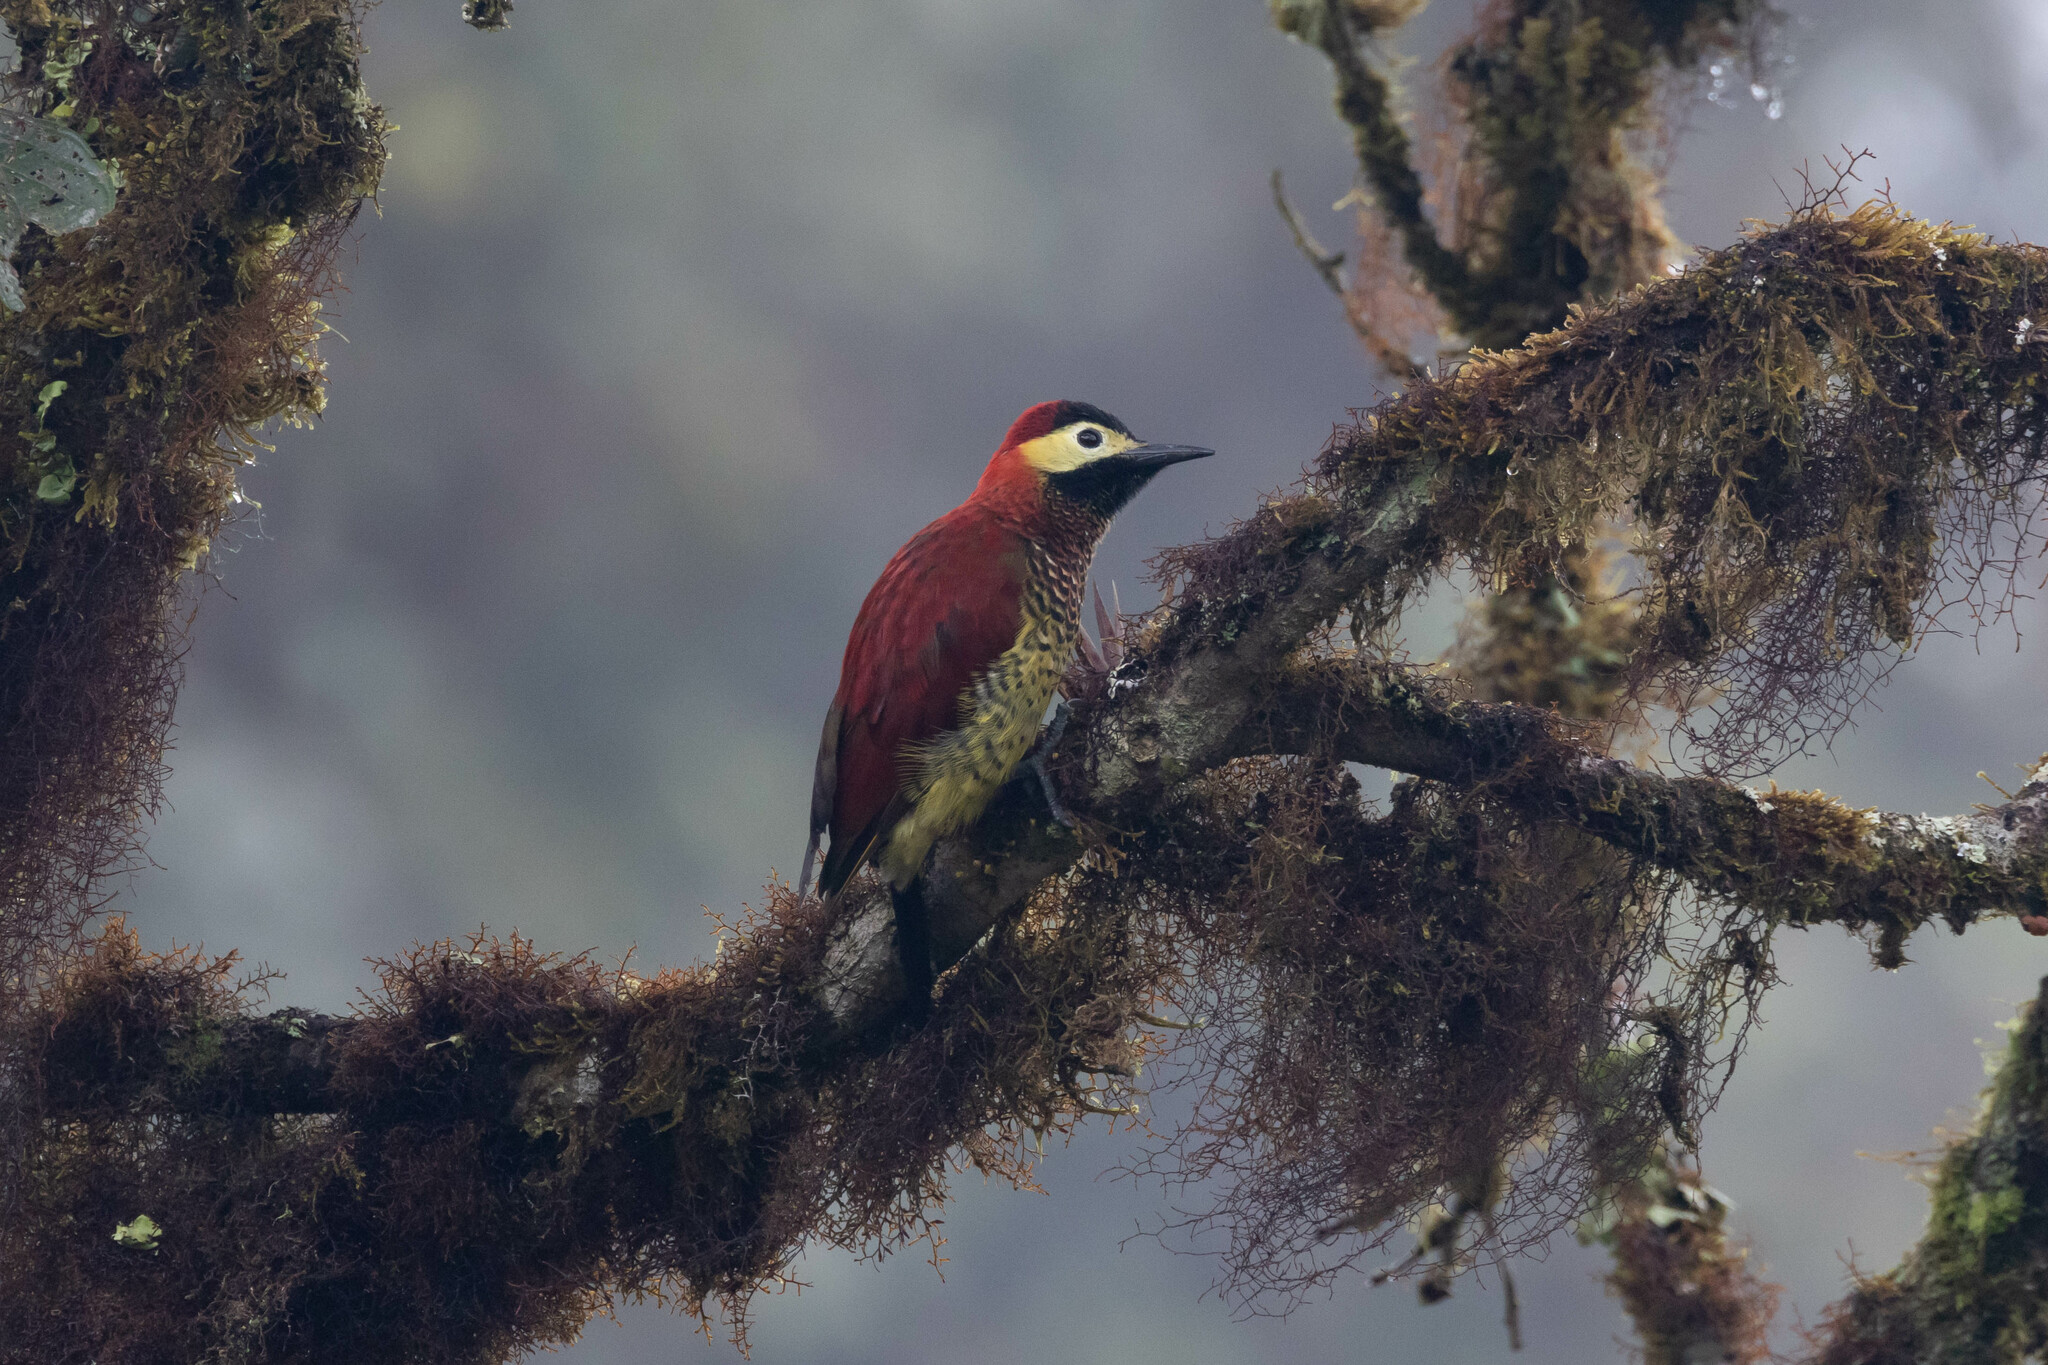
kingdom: Animalia
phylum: Chordata
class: Aves
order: Piciformes
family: Picidae
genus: Colaptes
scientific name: Colaptes rivolii
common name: Crimson-mantled woodpecker
